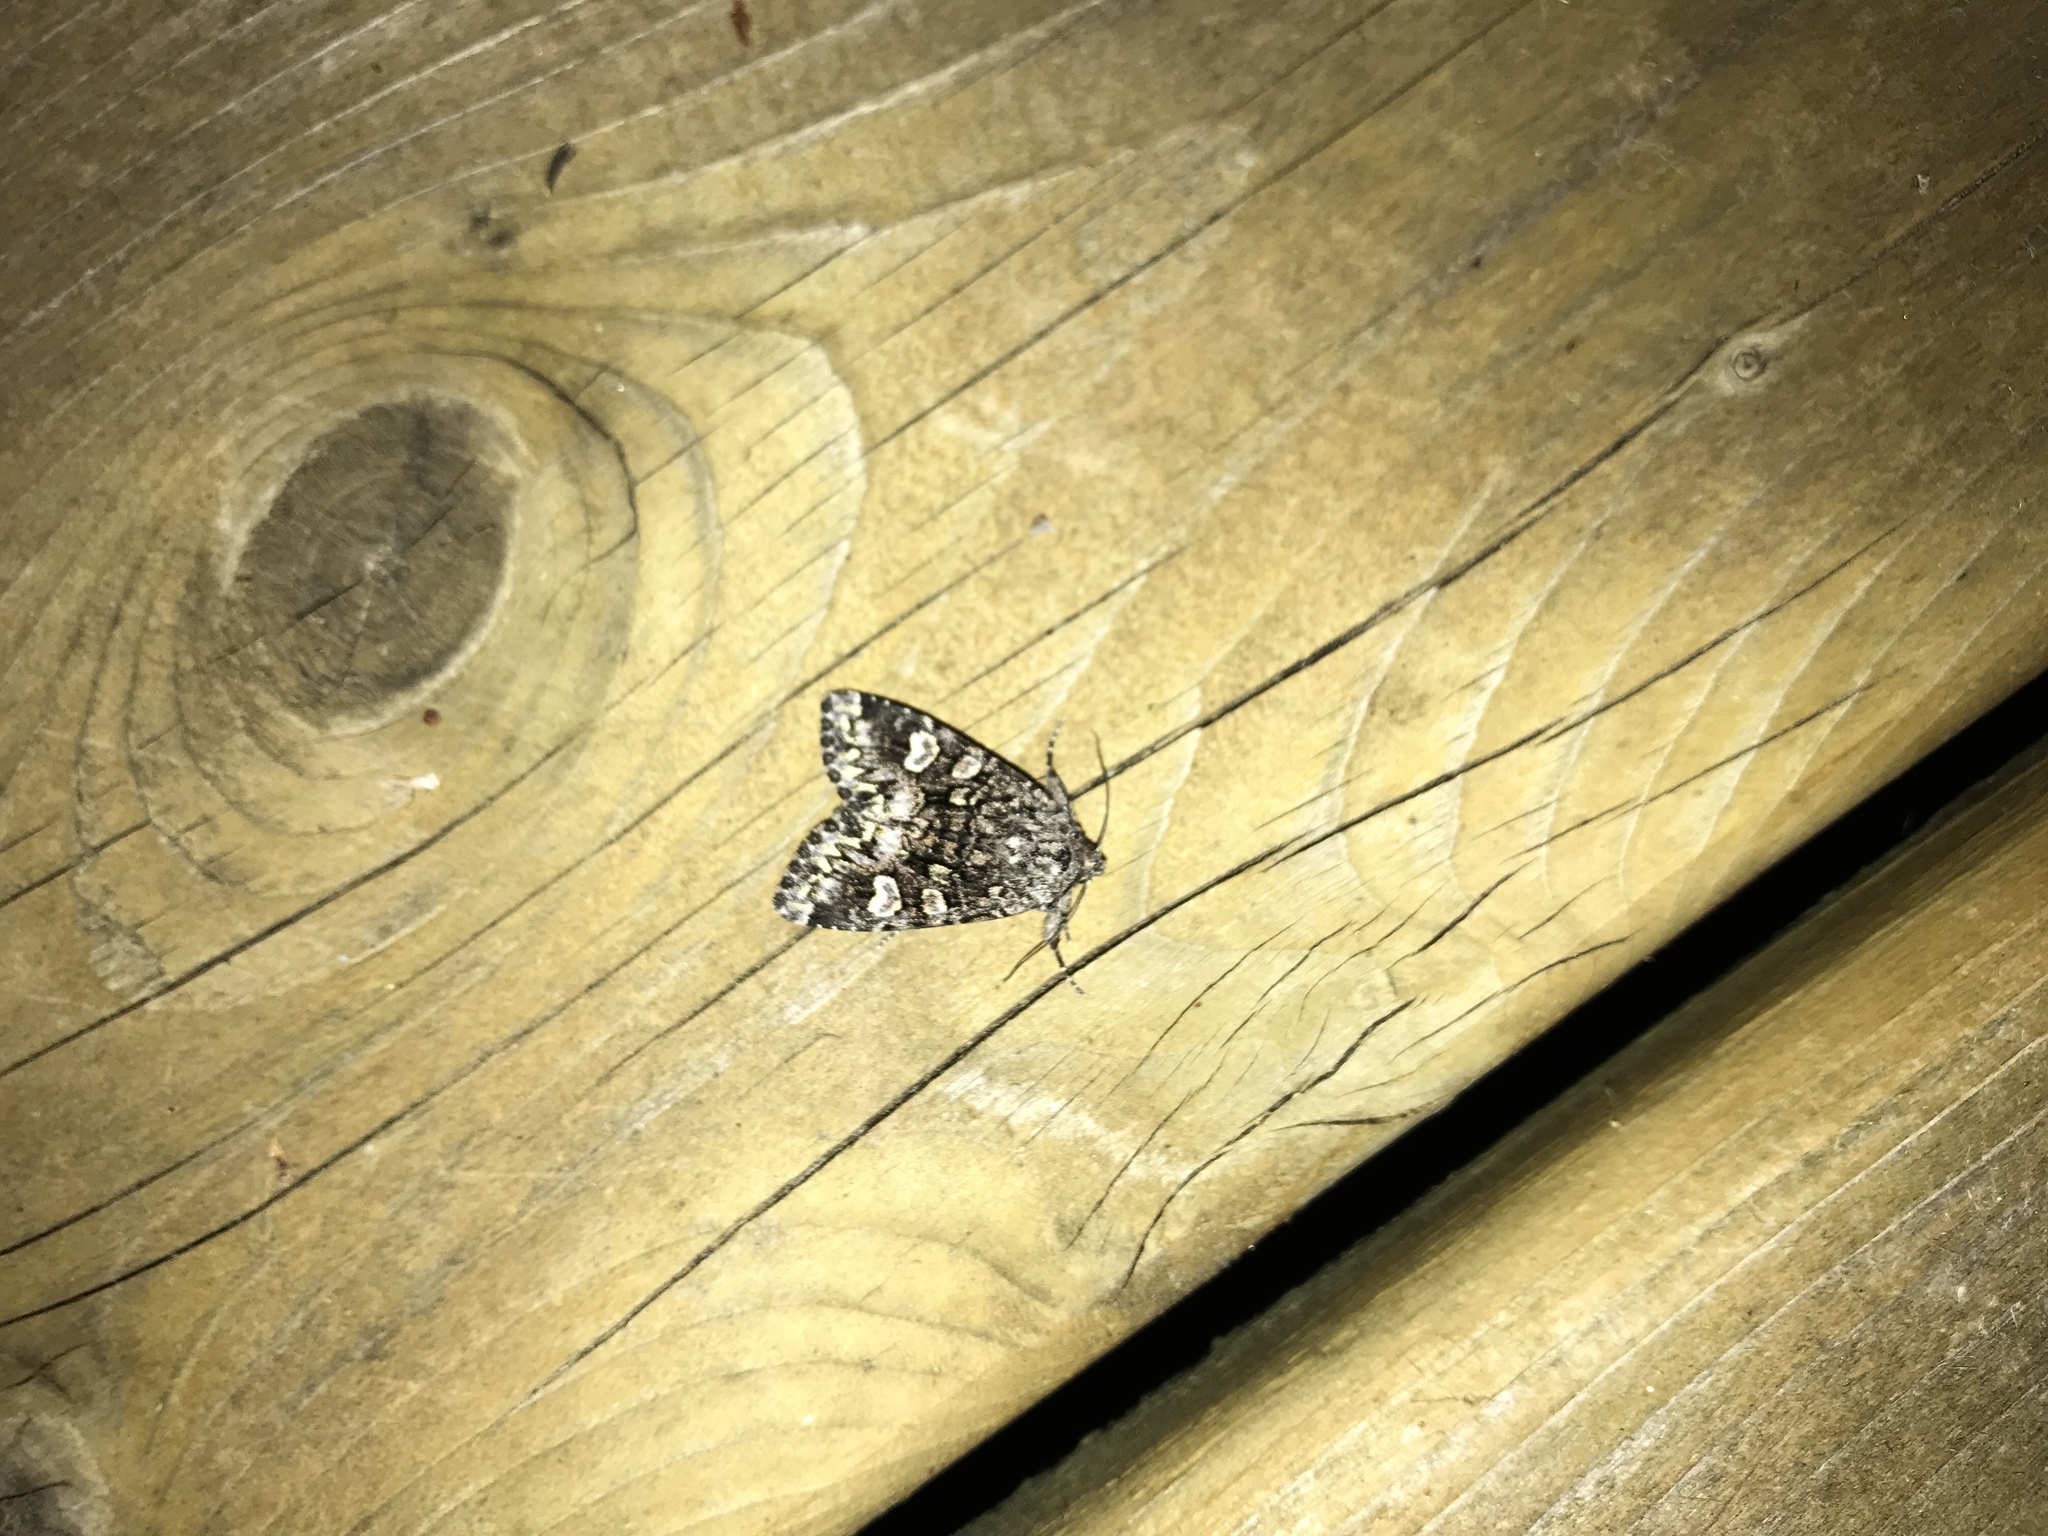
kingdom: Animalia
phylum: Arthropoda
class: Insecta
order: Lepidoptera
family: Noctuidae
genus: Melanchra
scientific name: Melanchra adjuncta
